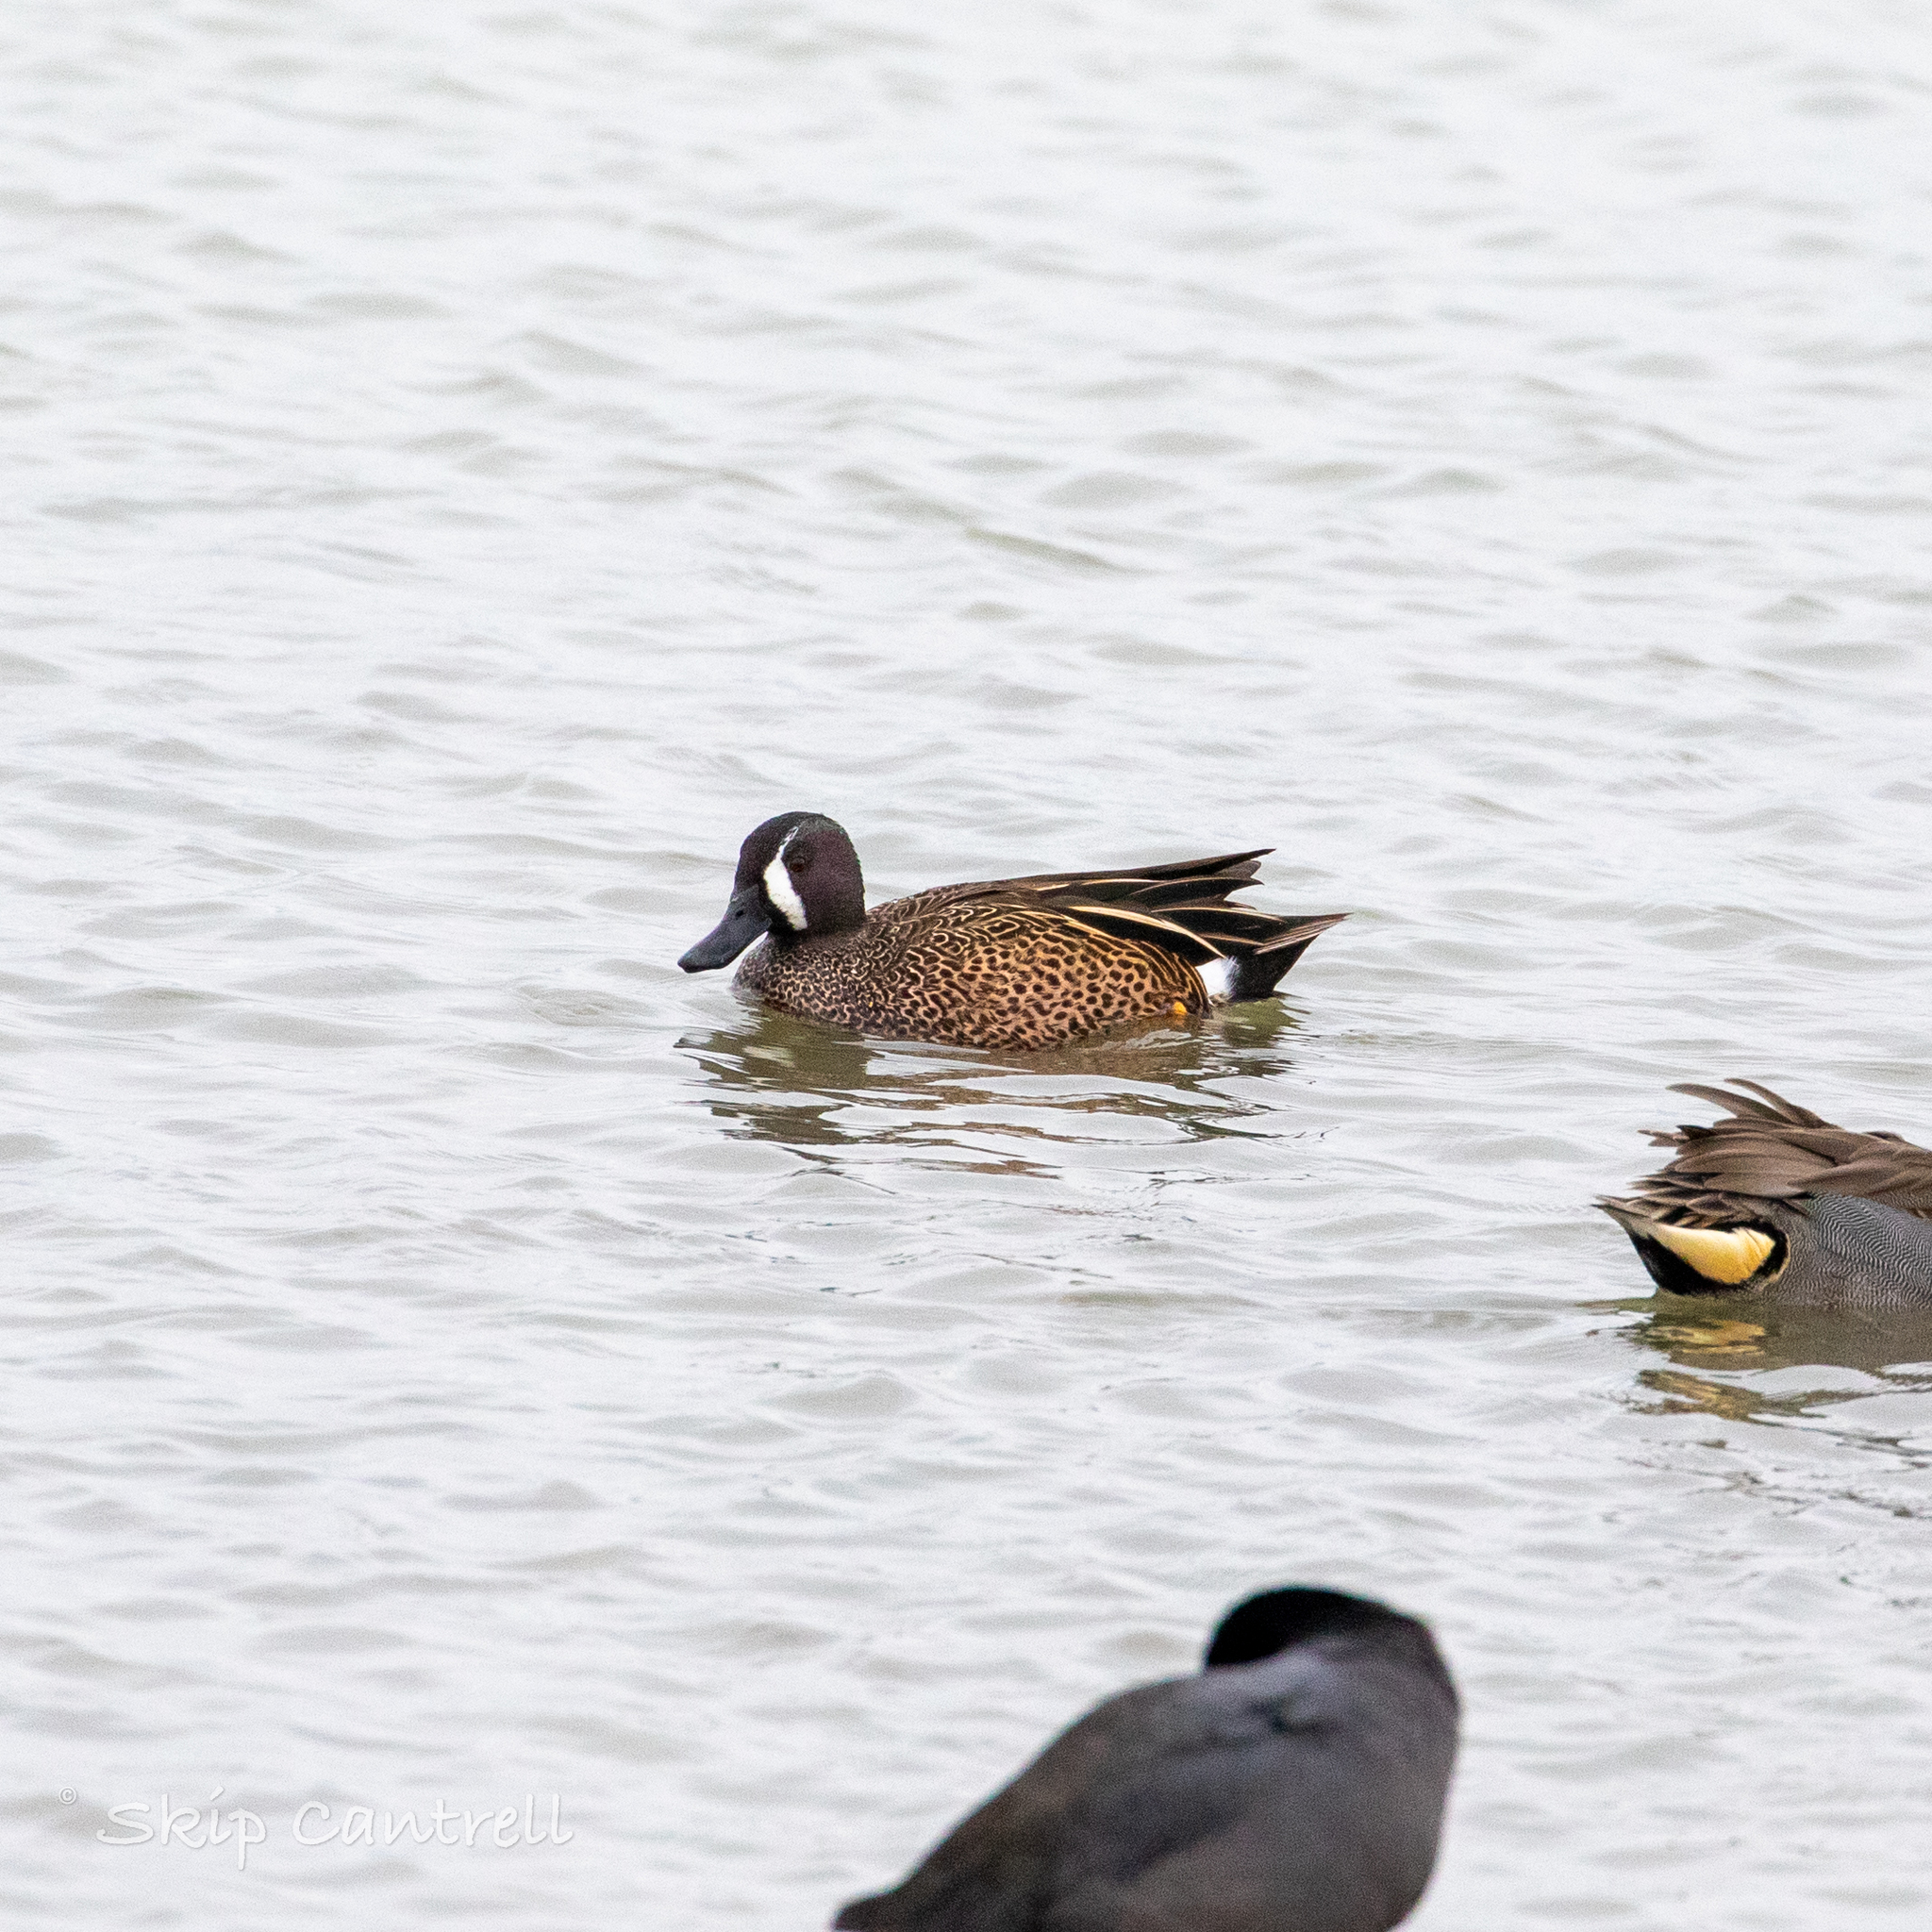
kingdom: Animalia
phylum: Chordata
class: Aves
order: Anseriformes
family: Anatidae
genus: Spatula
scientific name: Spatula discors
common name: Blue-winged teal
